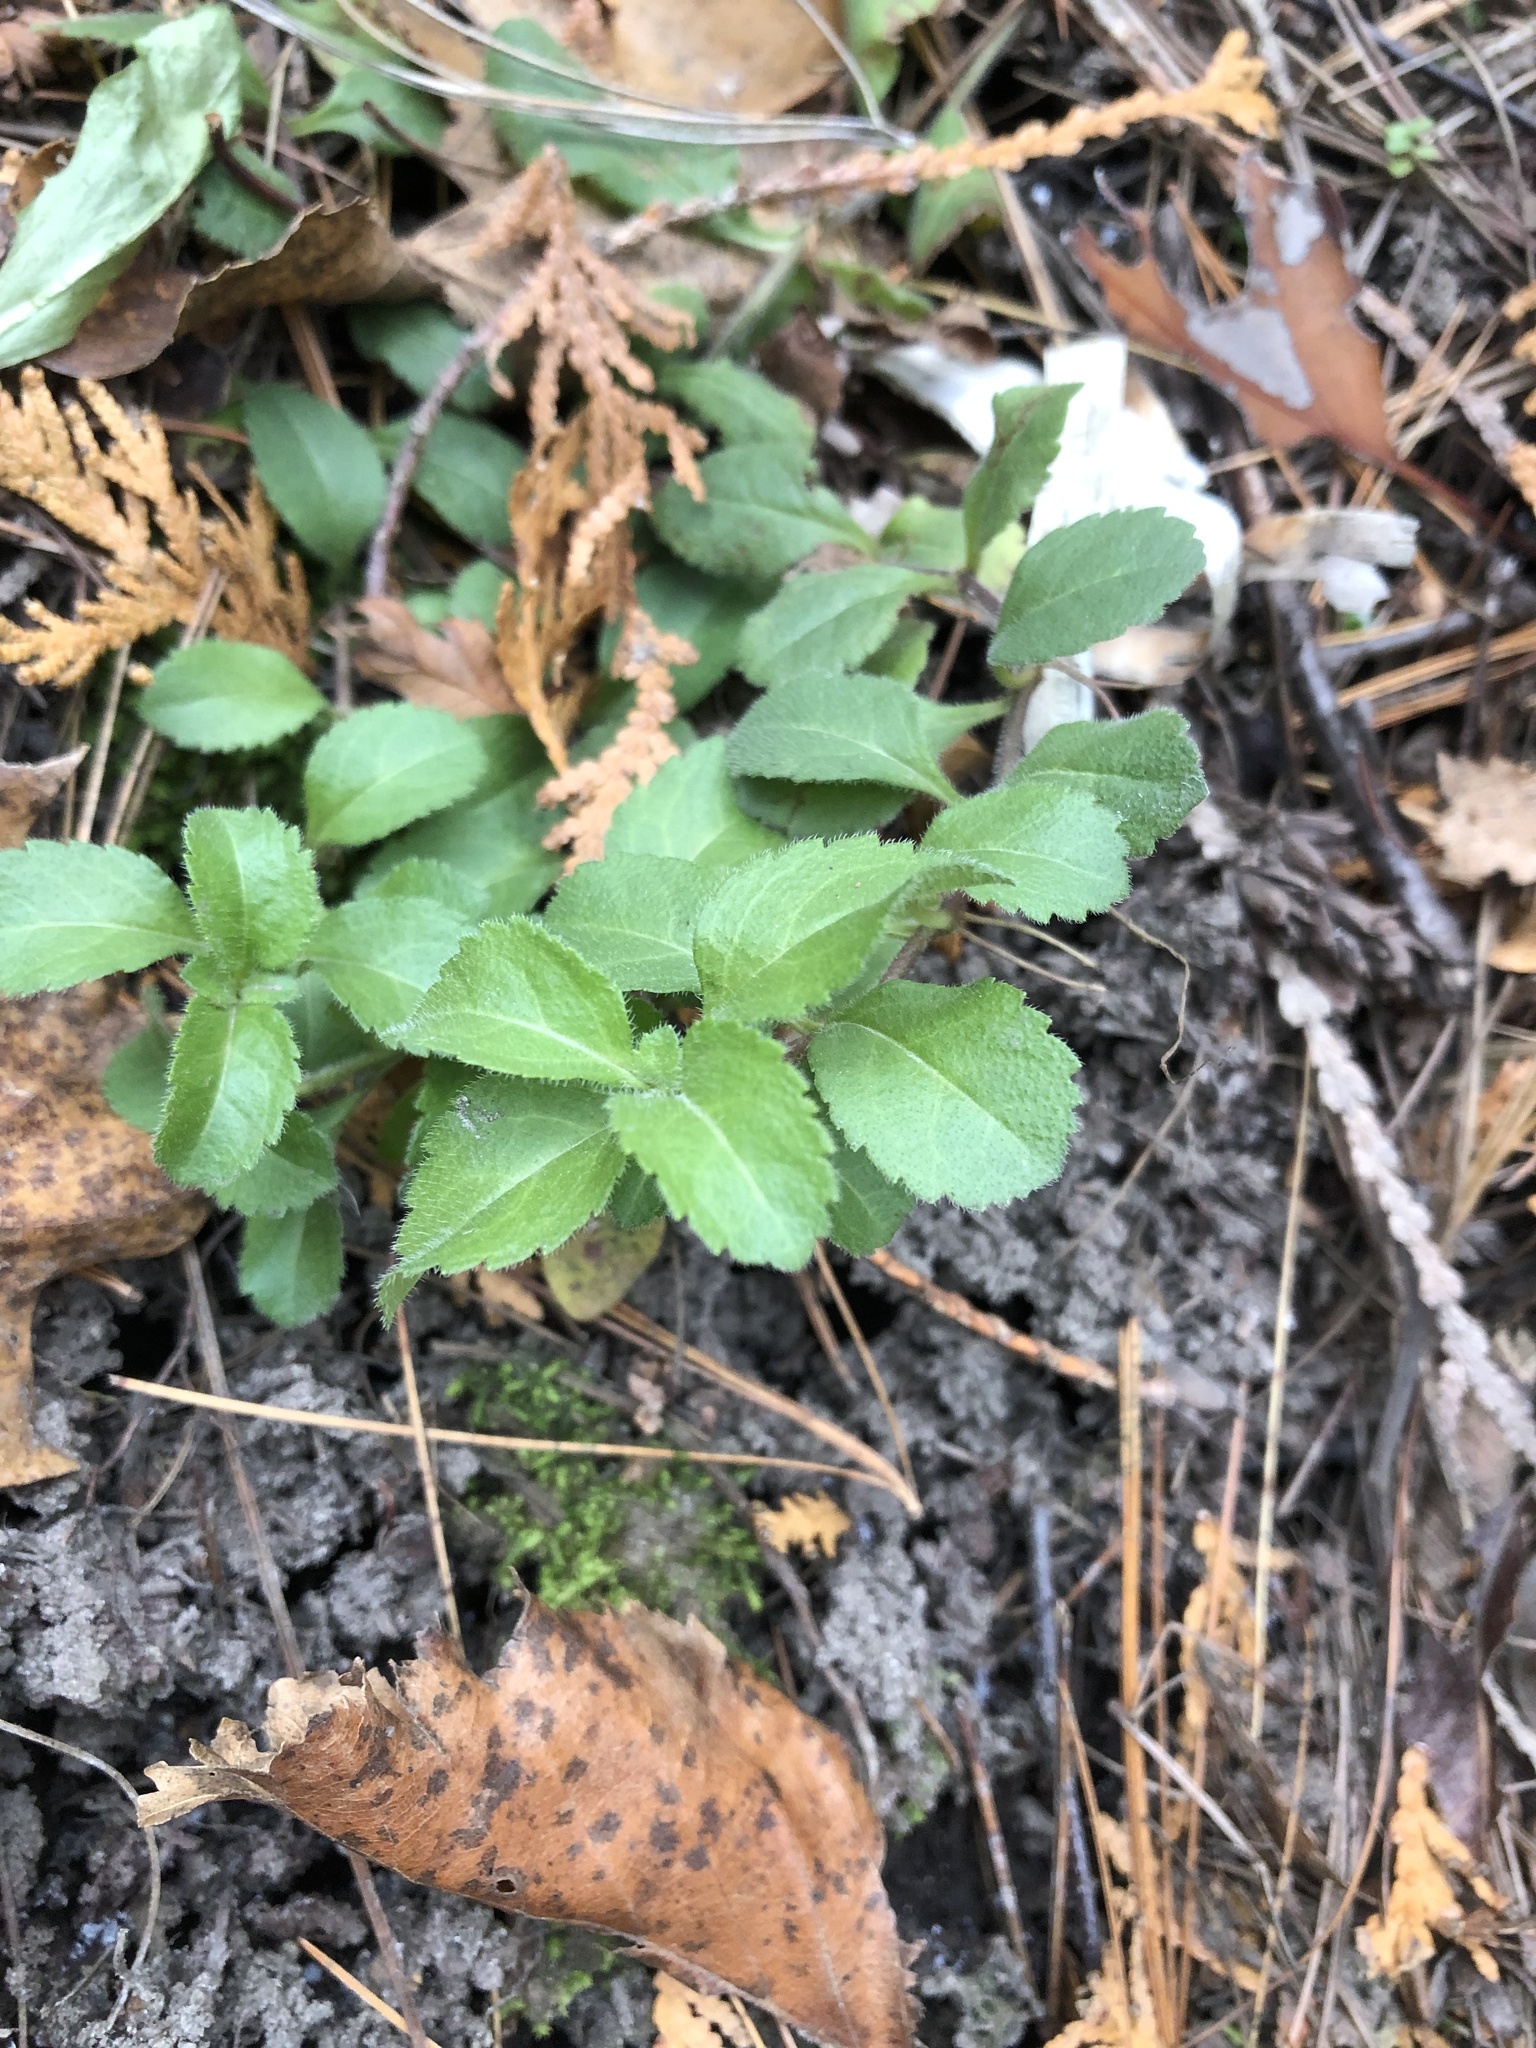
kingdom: Plantae
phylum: Tracheophyta
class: Magnoliopsida
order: Lamiales
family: Plantaginaceae
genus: Veronica
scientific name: Veronica officinalis
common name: Common speedwell
